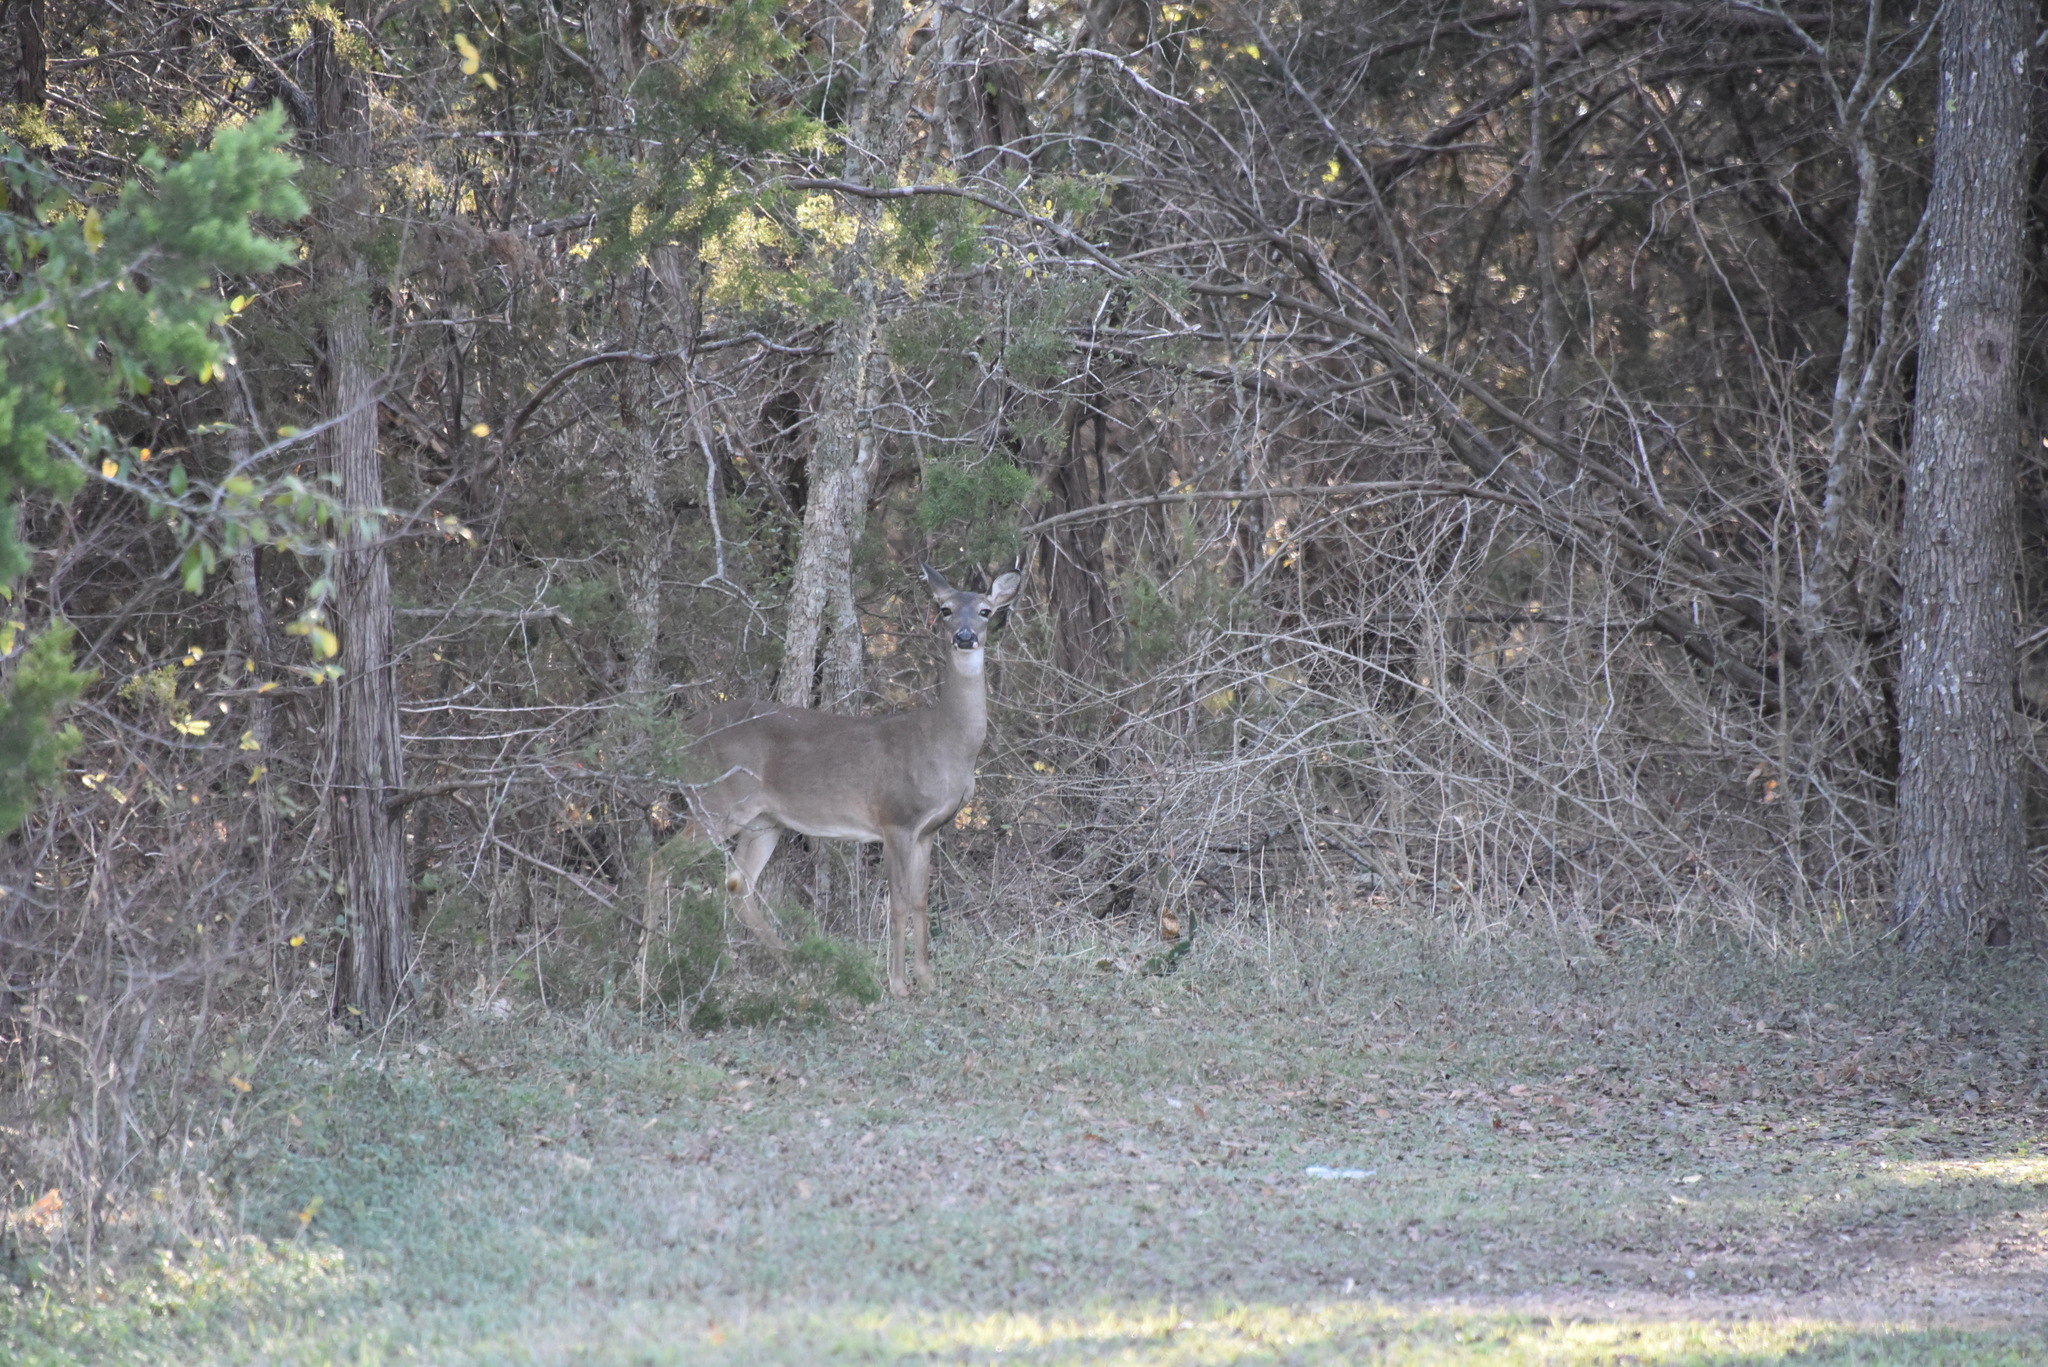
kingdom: Animalia
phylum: Chordata
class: Mammalia
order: Artiodactyla
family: Cervidae
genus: Odocoileus
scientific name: Odocoileus virginianus
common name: White-tailed deer
